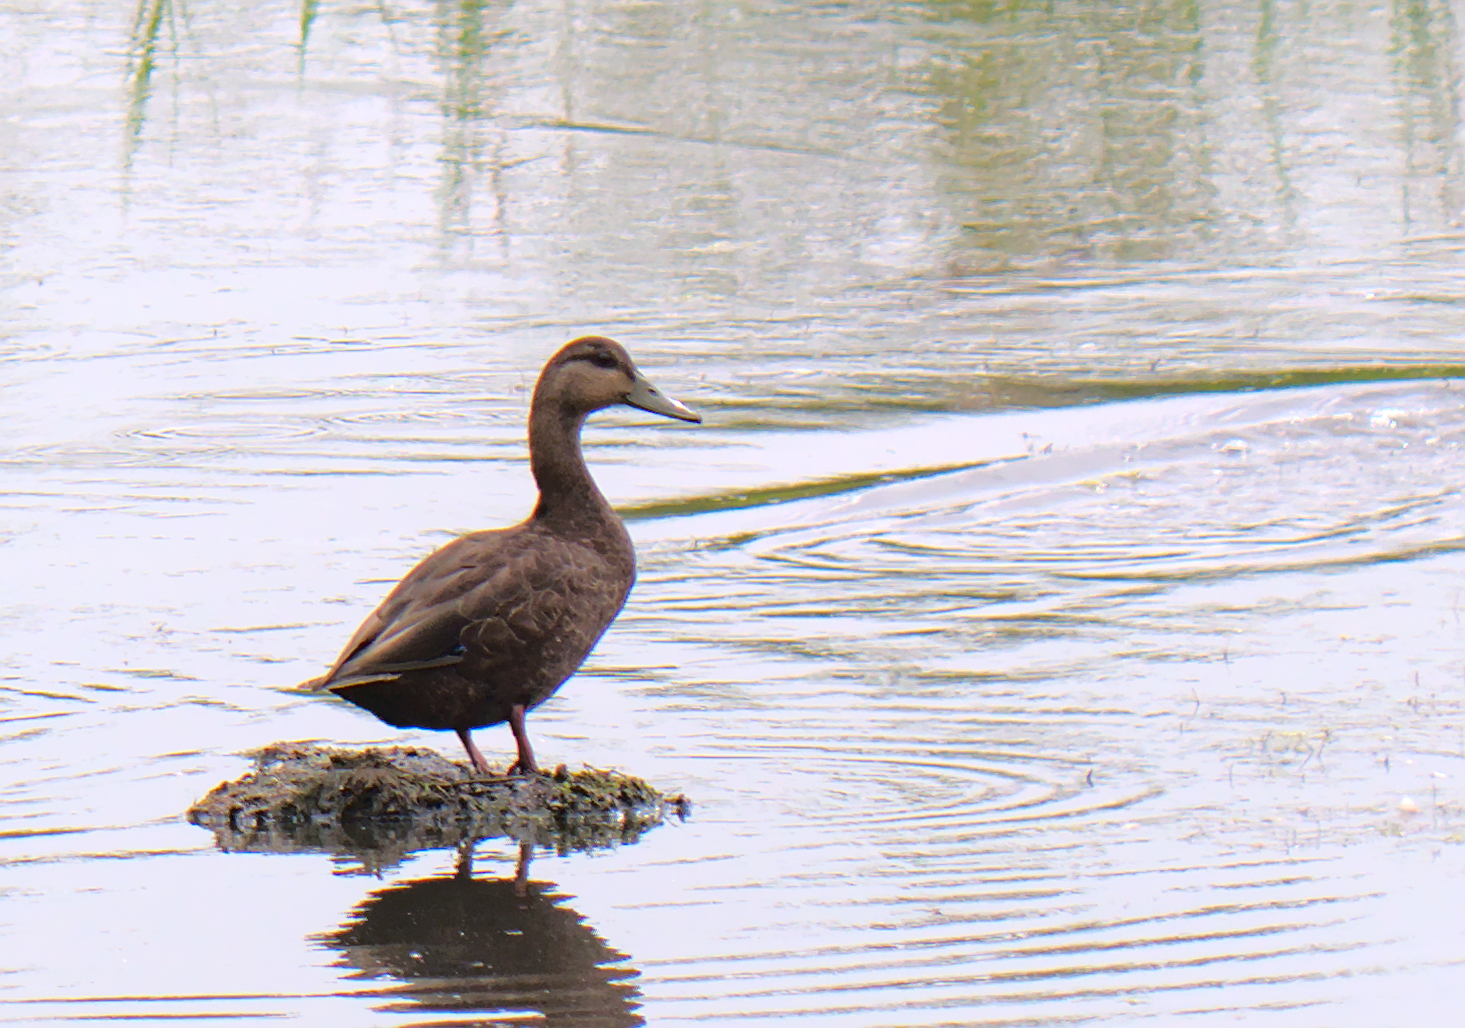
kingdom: Animalia
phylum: Chordata
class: Aves
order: Anseriformes
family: Anatidae
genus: Anas
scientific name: Anas rubripes
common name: American black duck
